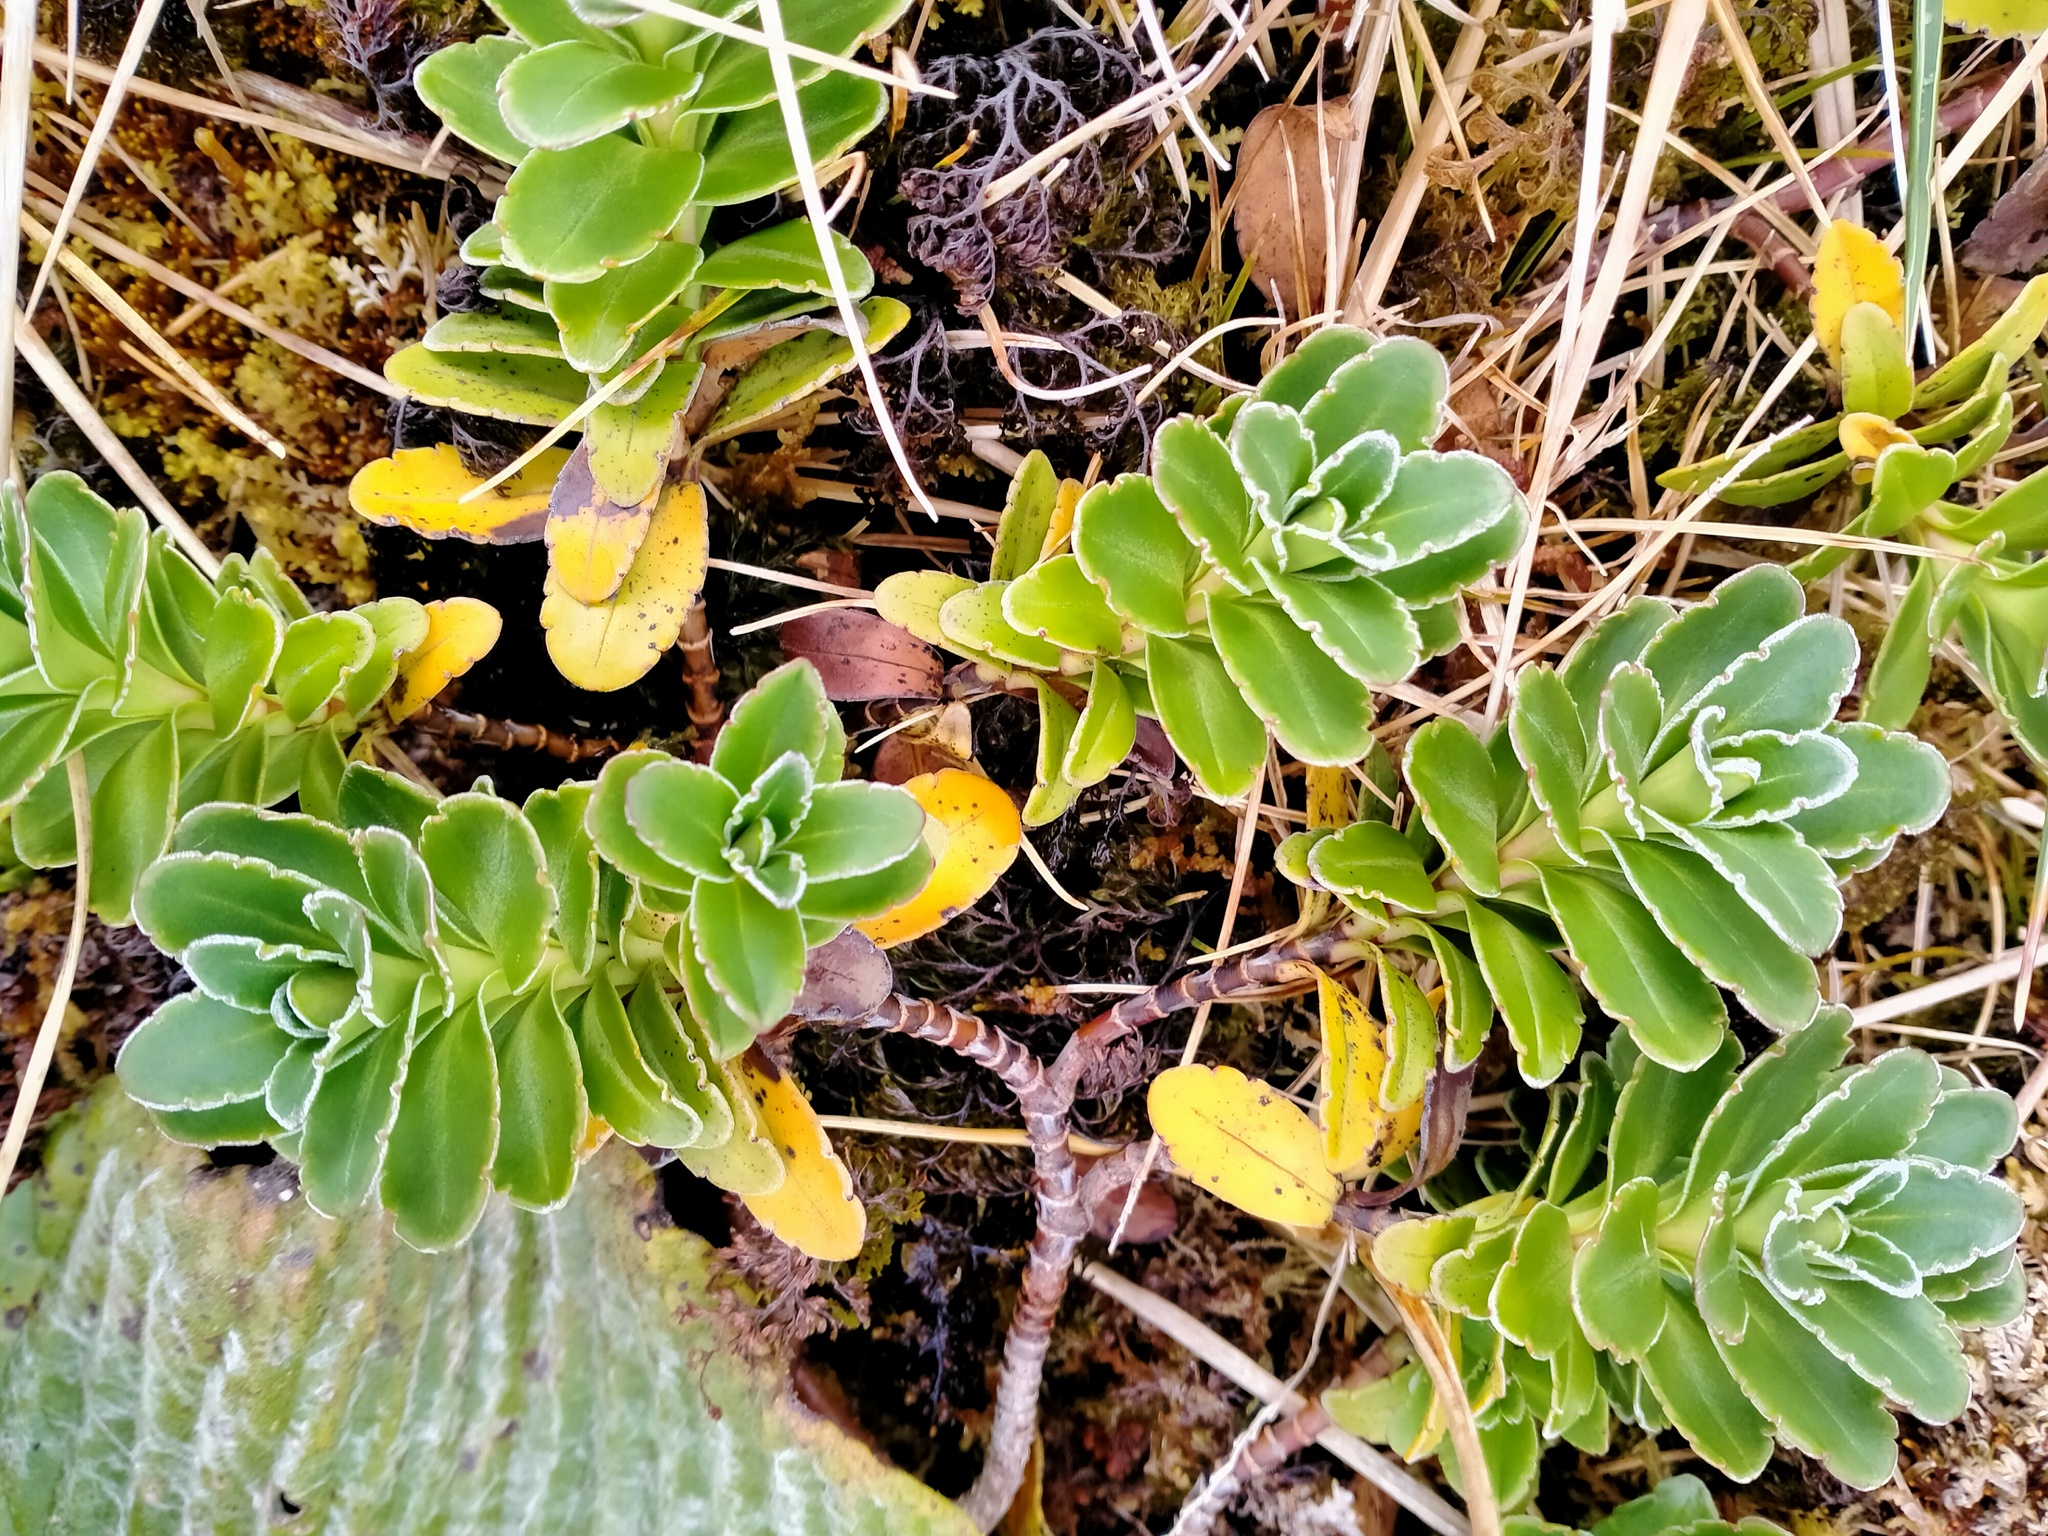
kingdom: Plantae
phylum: Tracheophyta
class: Magnoliopsida
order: Lamiales
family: Plantaginaceae
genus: Veronica
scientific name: Veronica benthamii
